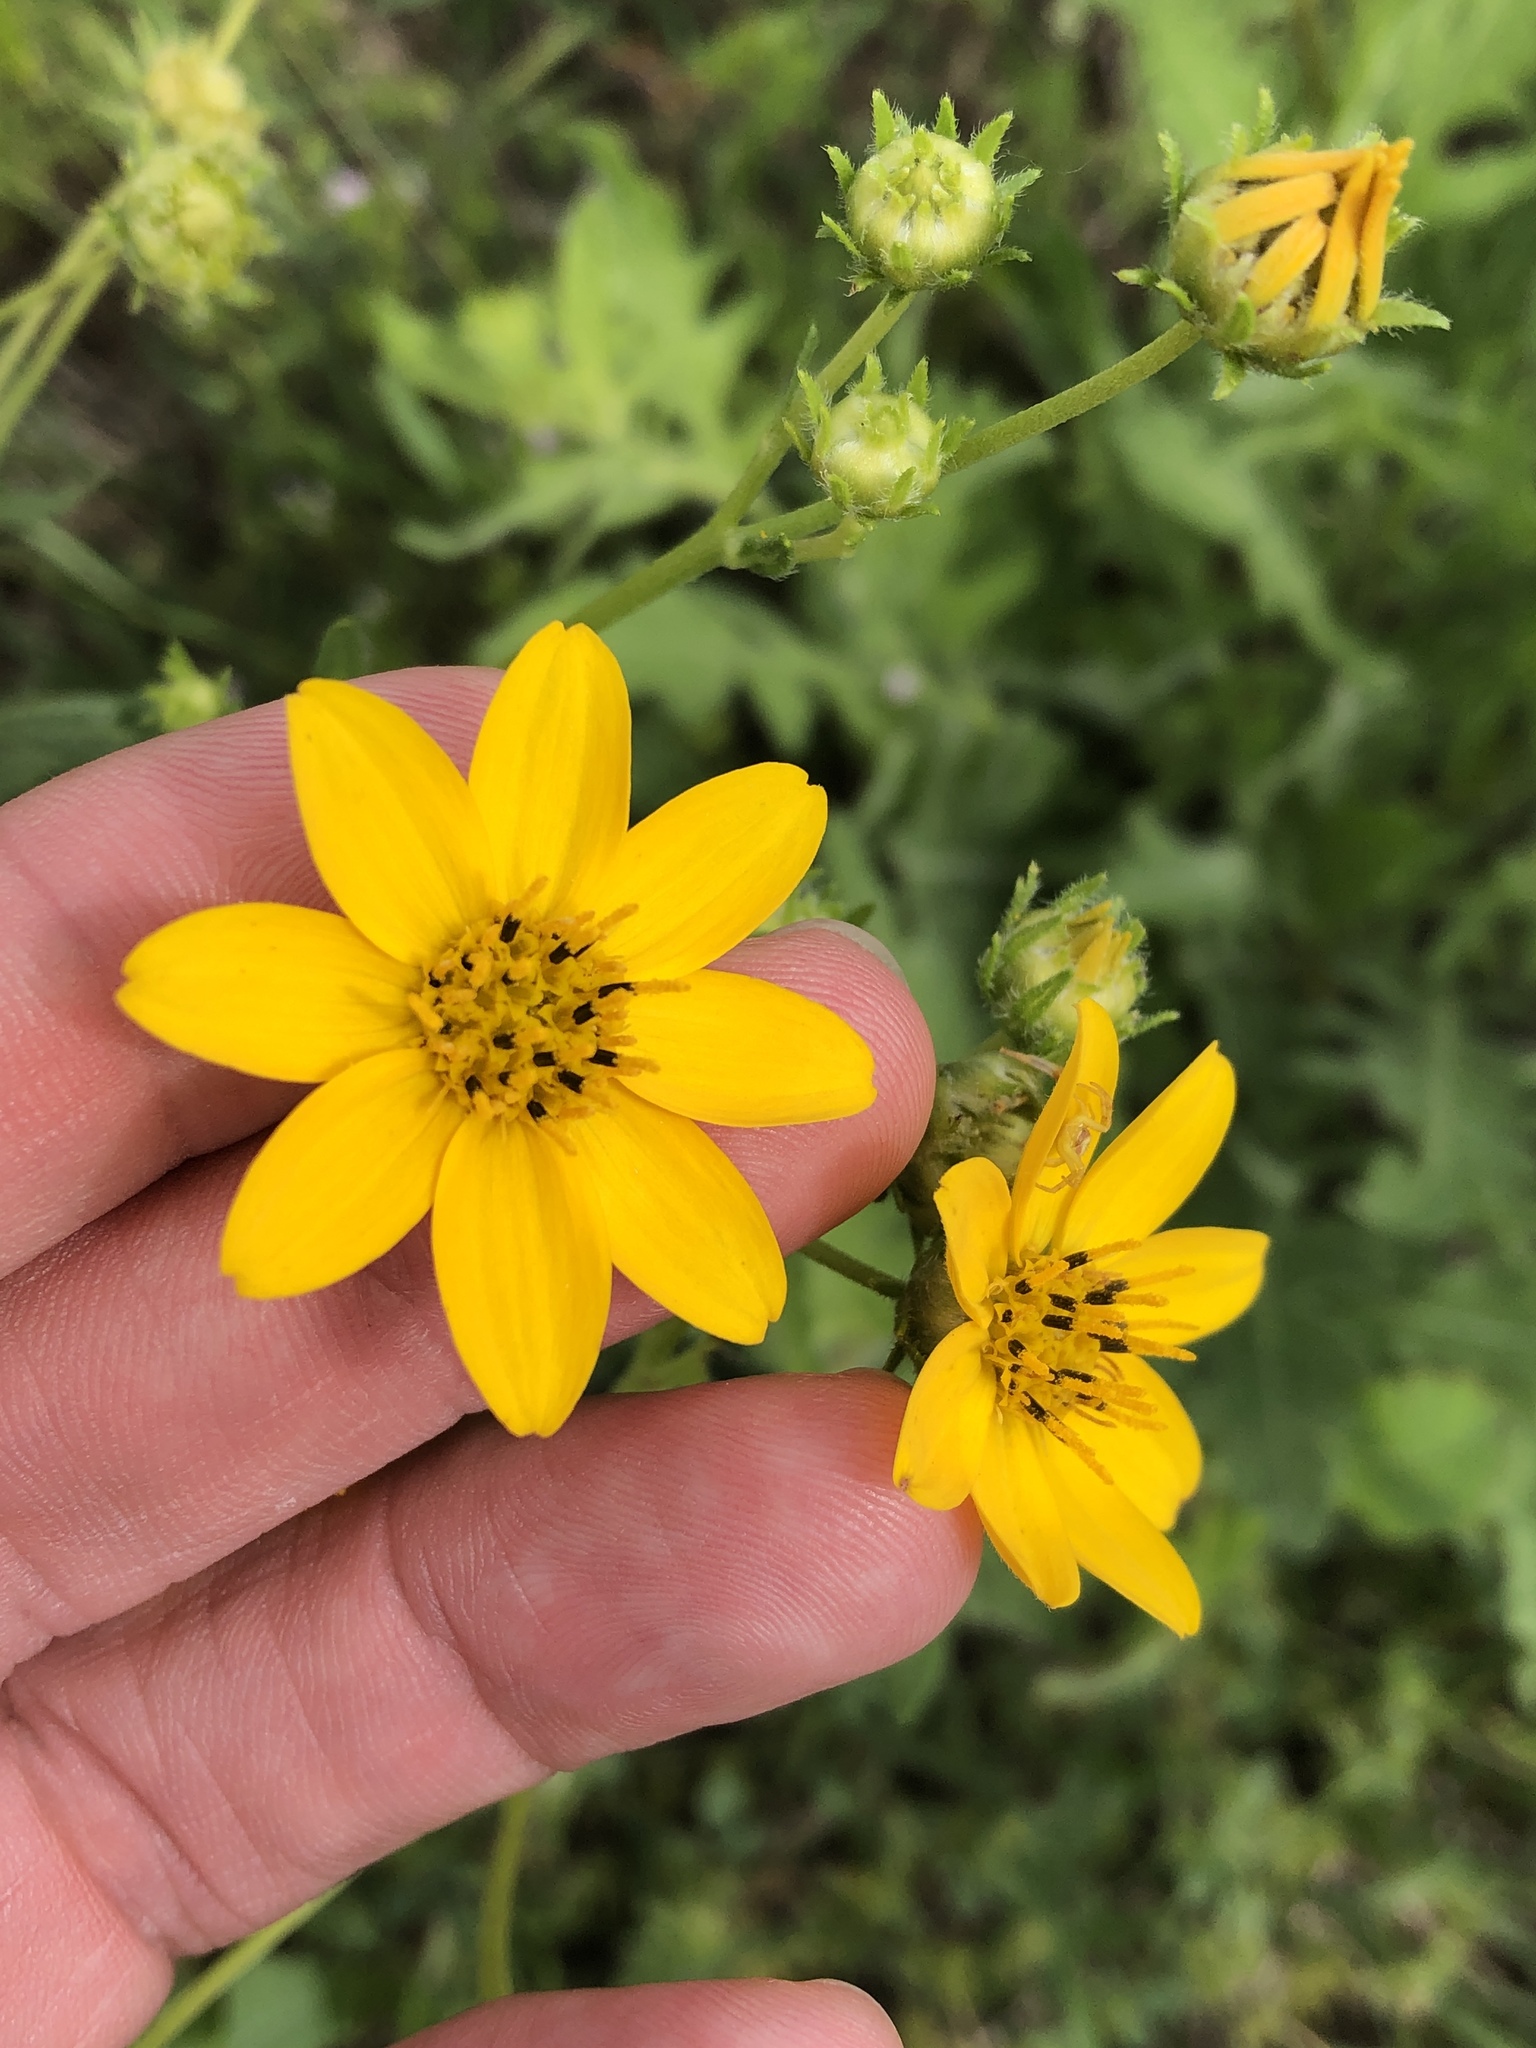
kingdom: Plantae
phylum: Tracheophyta
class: Magnoliopsida
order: Asterales
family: Asteraceae
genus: Engelmannia
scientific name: Engelmannia peristenia
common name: Engelmann's daisy
